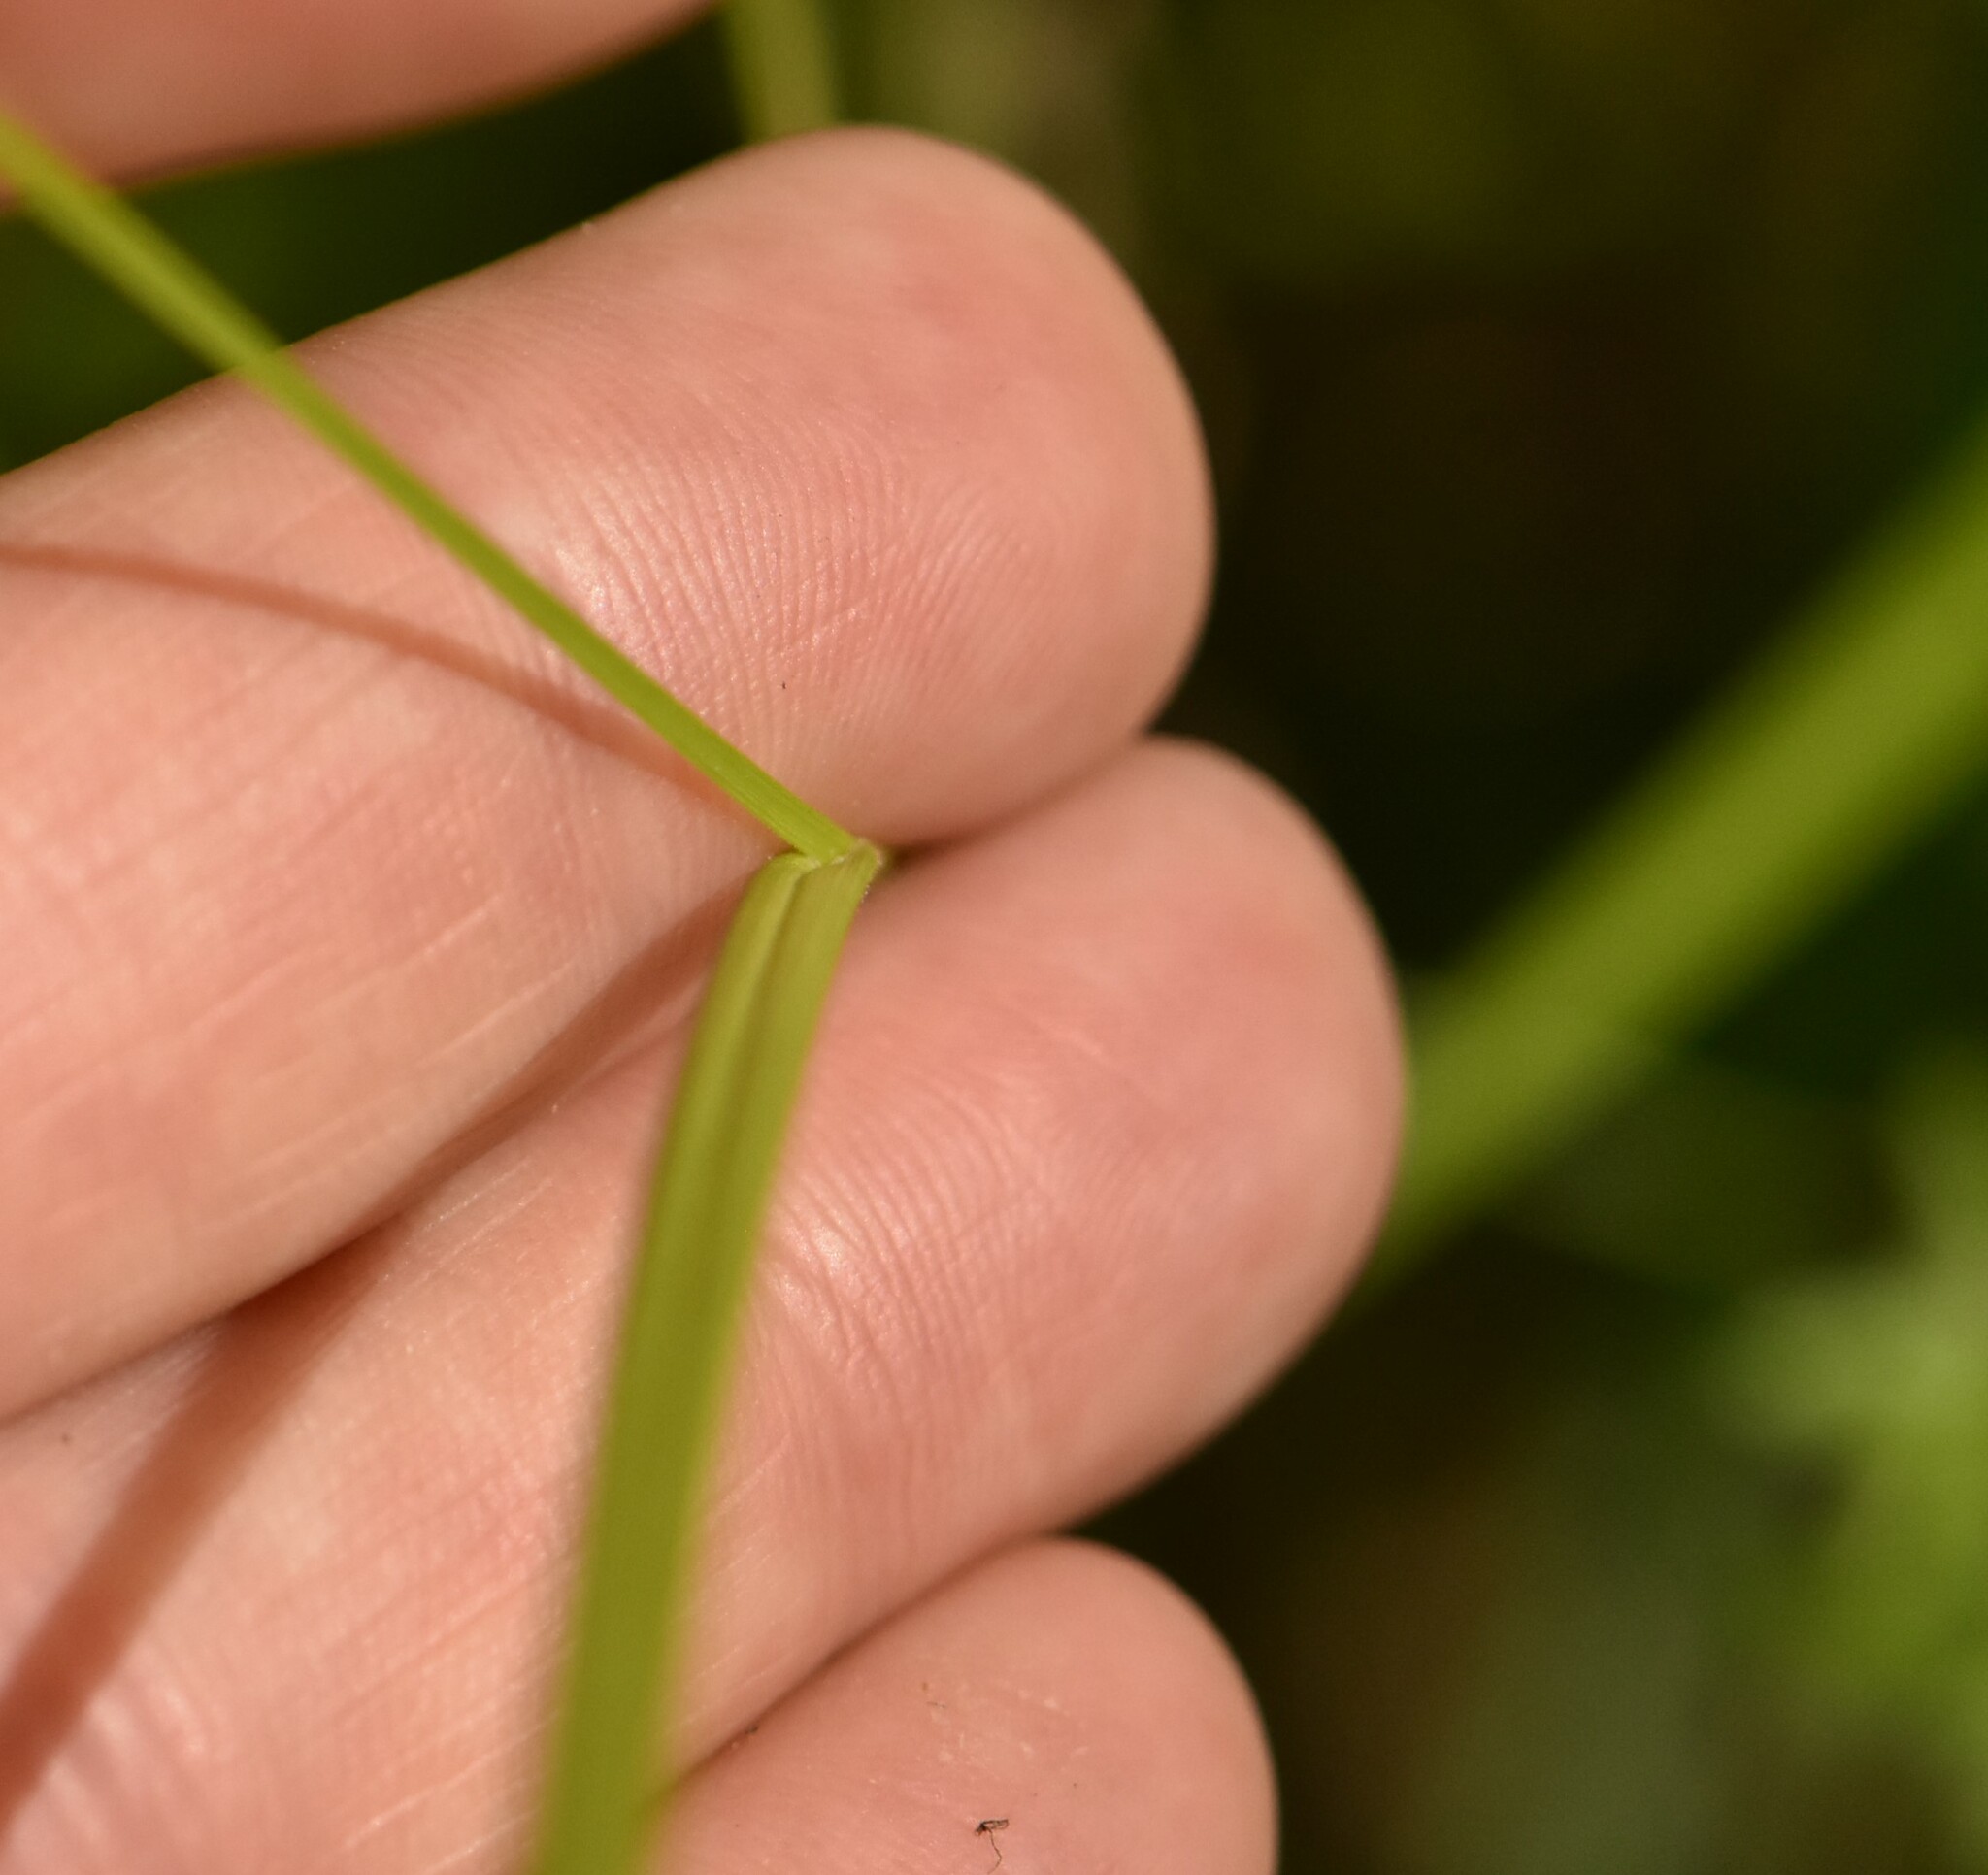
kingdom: Plantae
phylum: Tracheophyta
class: Liliopsida
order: Poales
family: Cyperaceae
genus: Carex
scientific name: Carex pallescens
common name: Pale sedge
